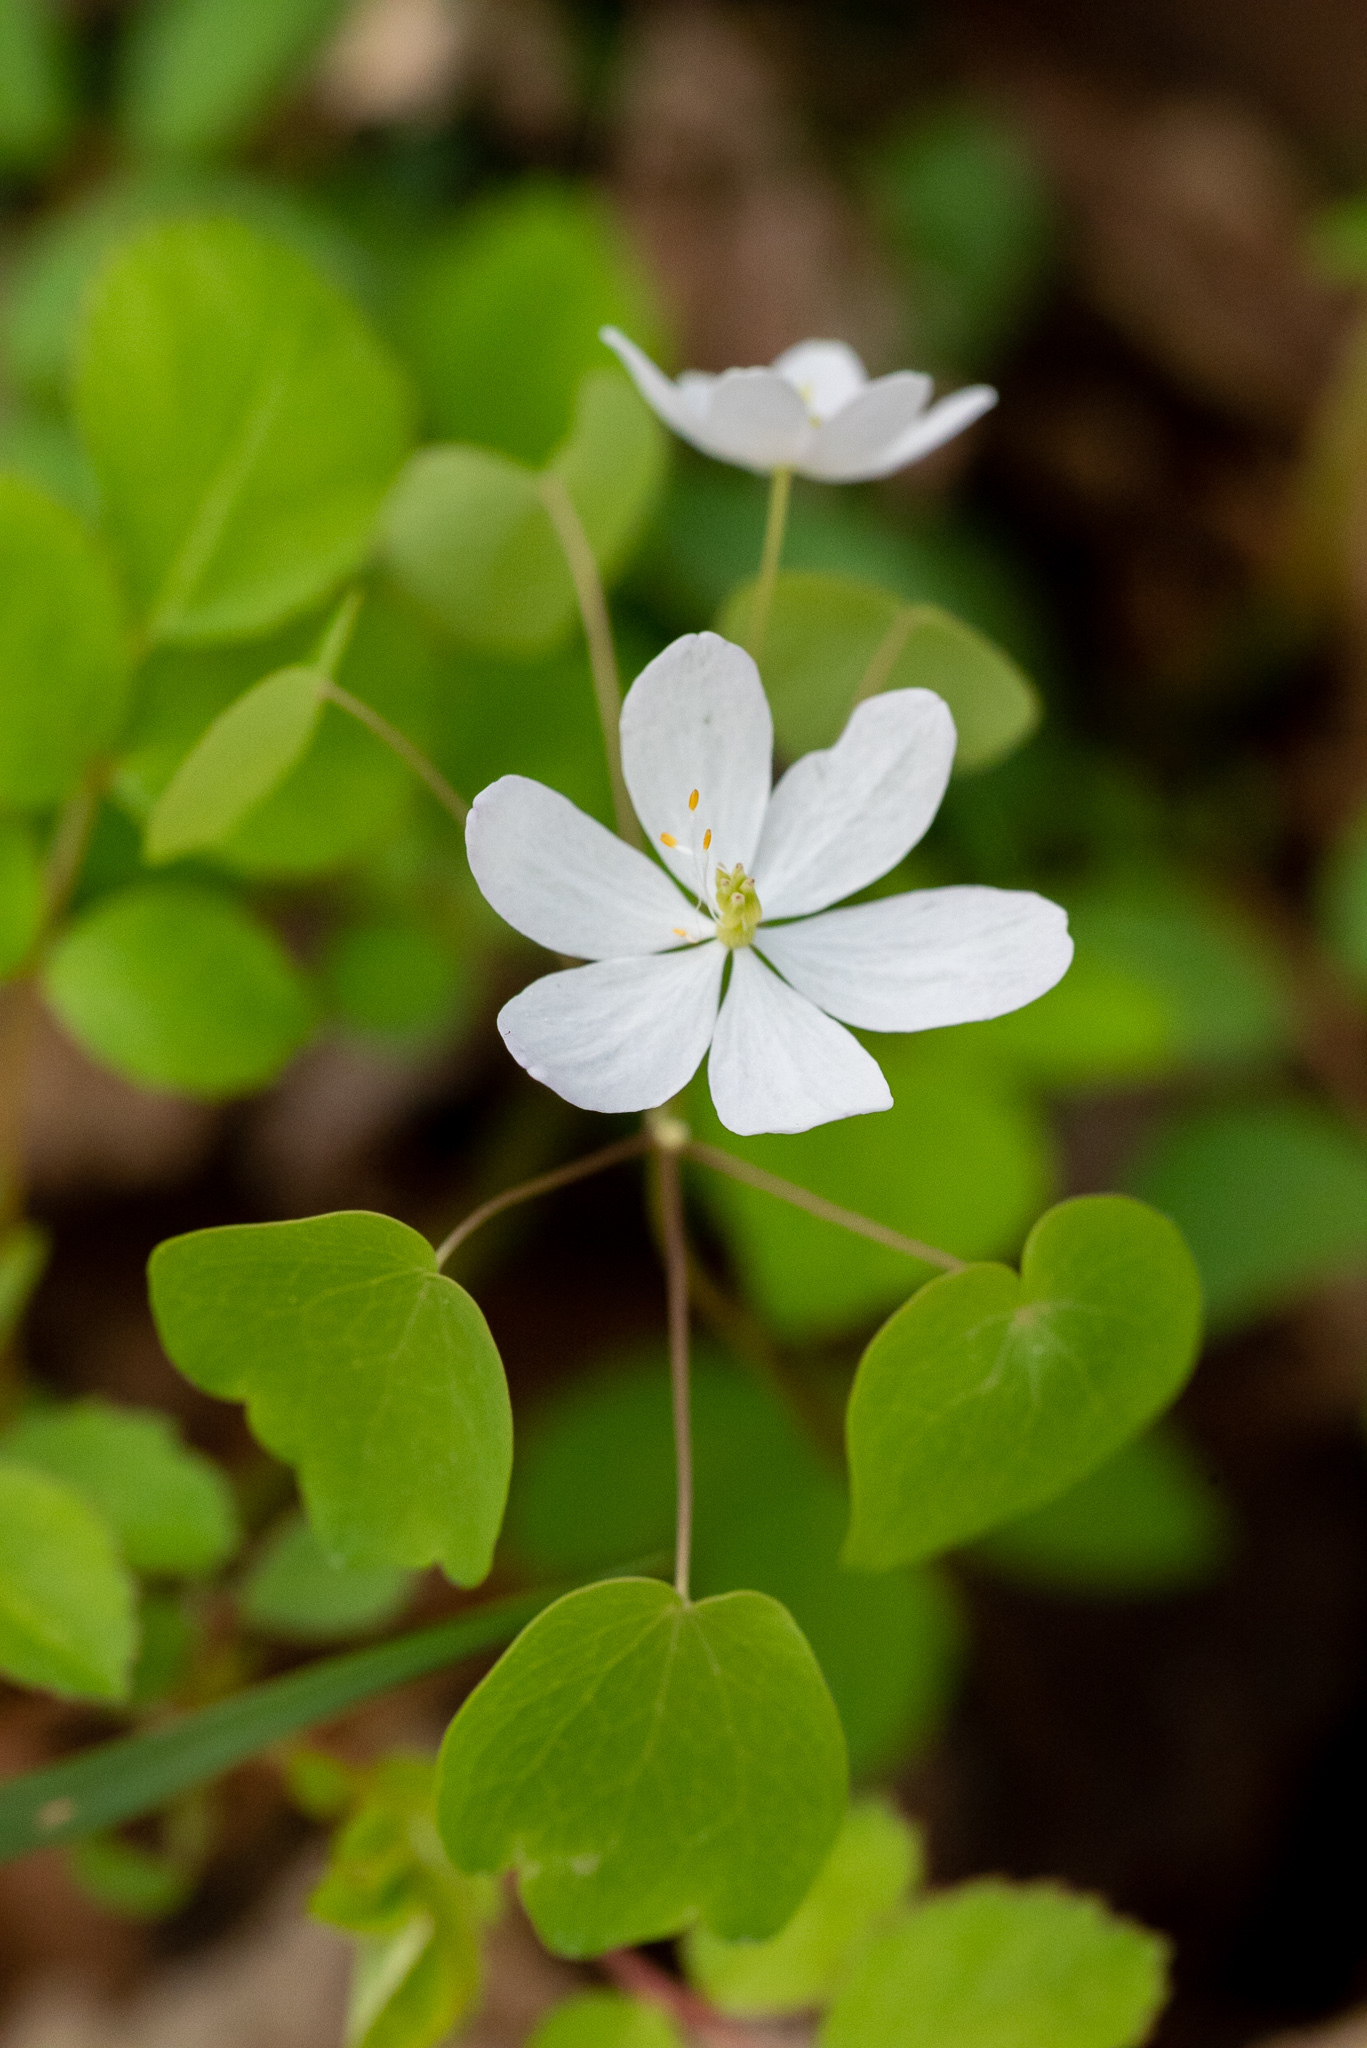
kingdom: Plantae
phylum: Tracheophyta
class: Magnoliopsida
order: Ranunculales
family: Ranunculaceae
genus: Thalictrum
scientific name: Thalictrum thalictroides
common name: Rue-anemone
